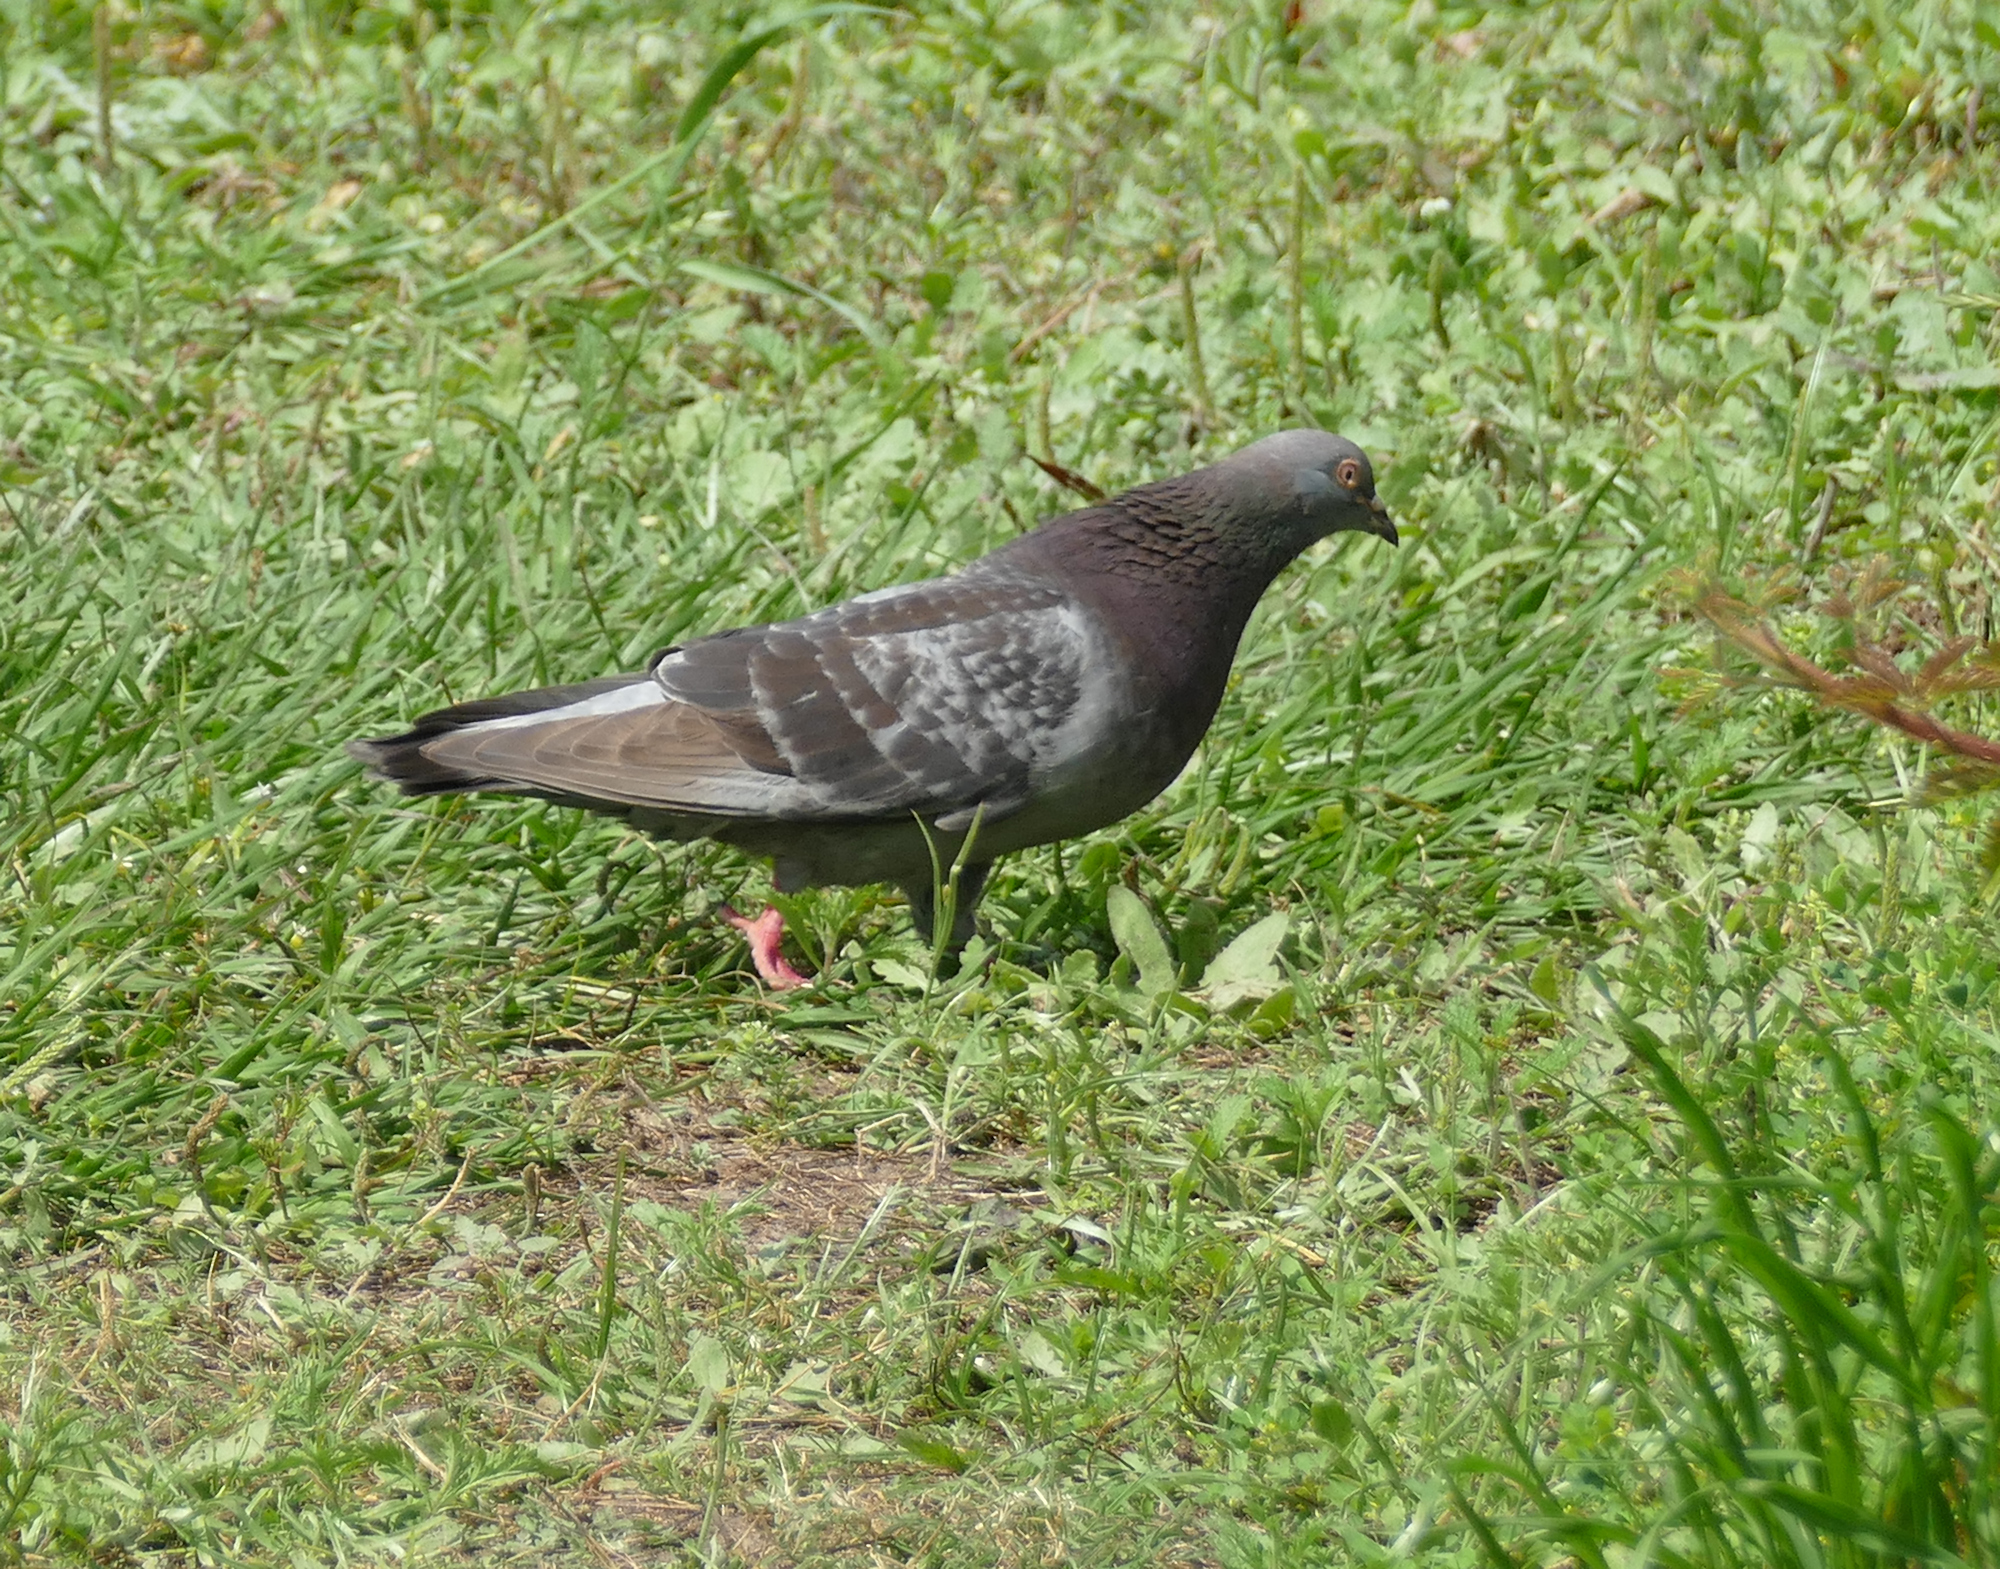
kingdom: Animalia
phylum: Chordata
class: Aves
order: Columbiformes
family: Columbidae
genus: Columba
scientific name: Columba livia
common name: Rock pigeon
